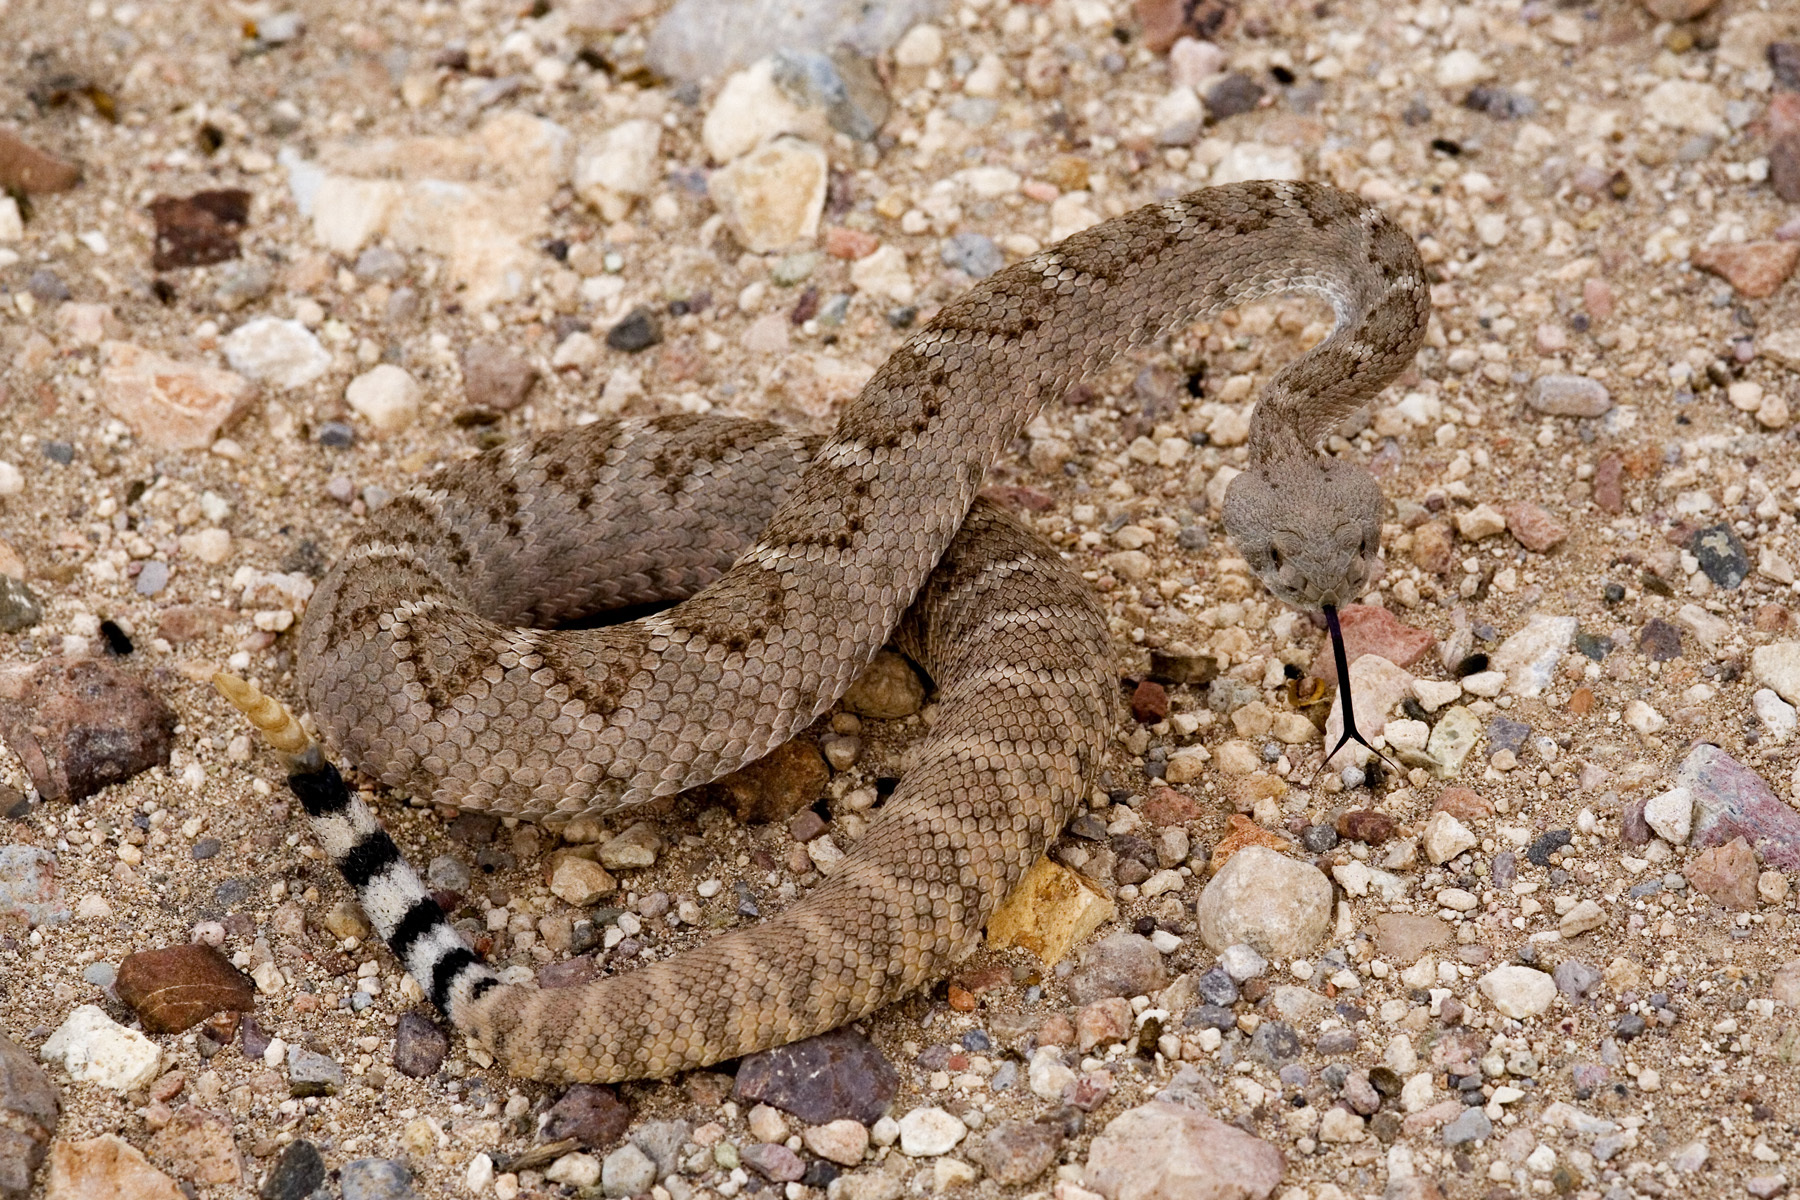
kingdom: Animalia
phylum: Chordata
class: Squamata
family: Viperidae
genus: Crotalus
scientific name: Crotalus atrox
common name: Western diamond-backed rattlesnake
